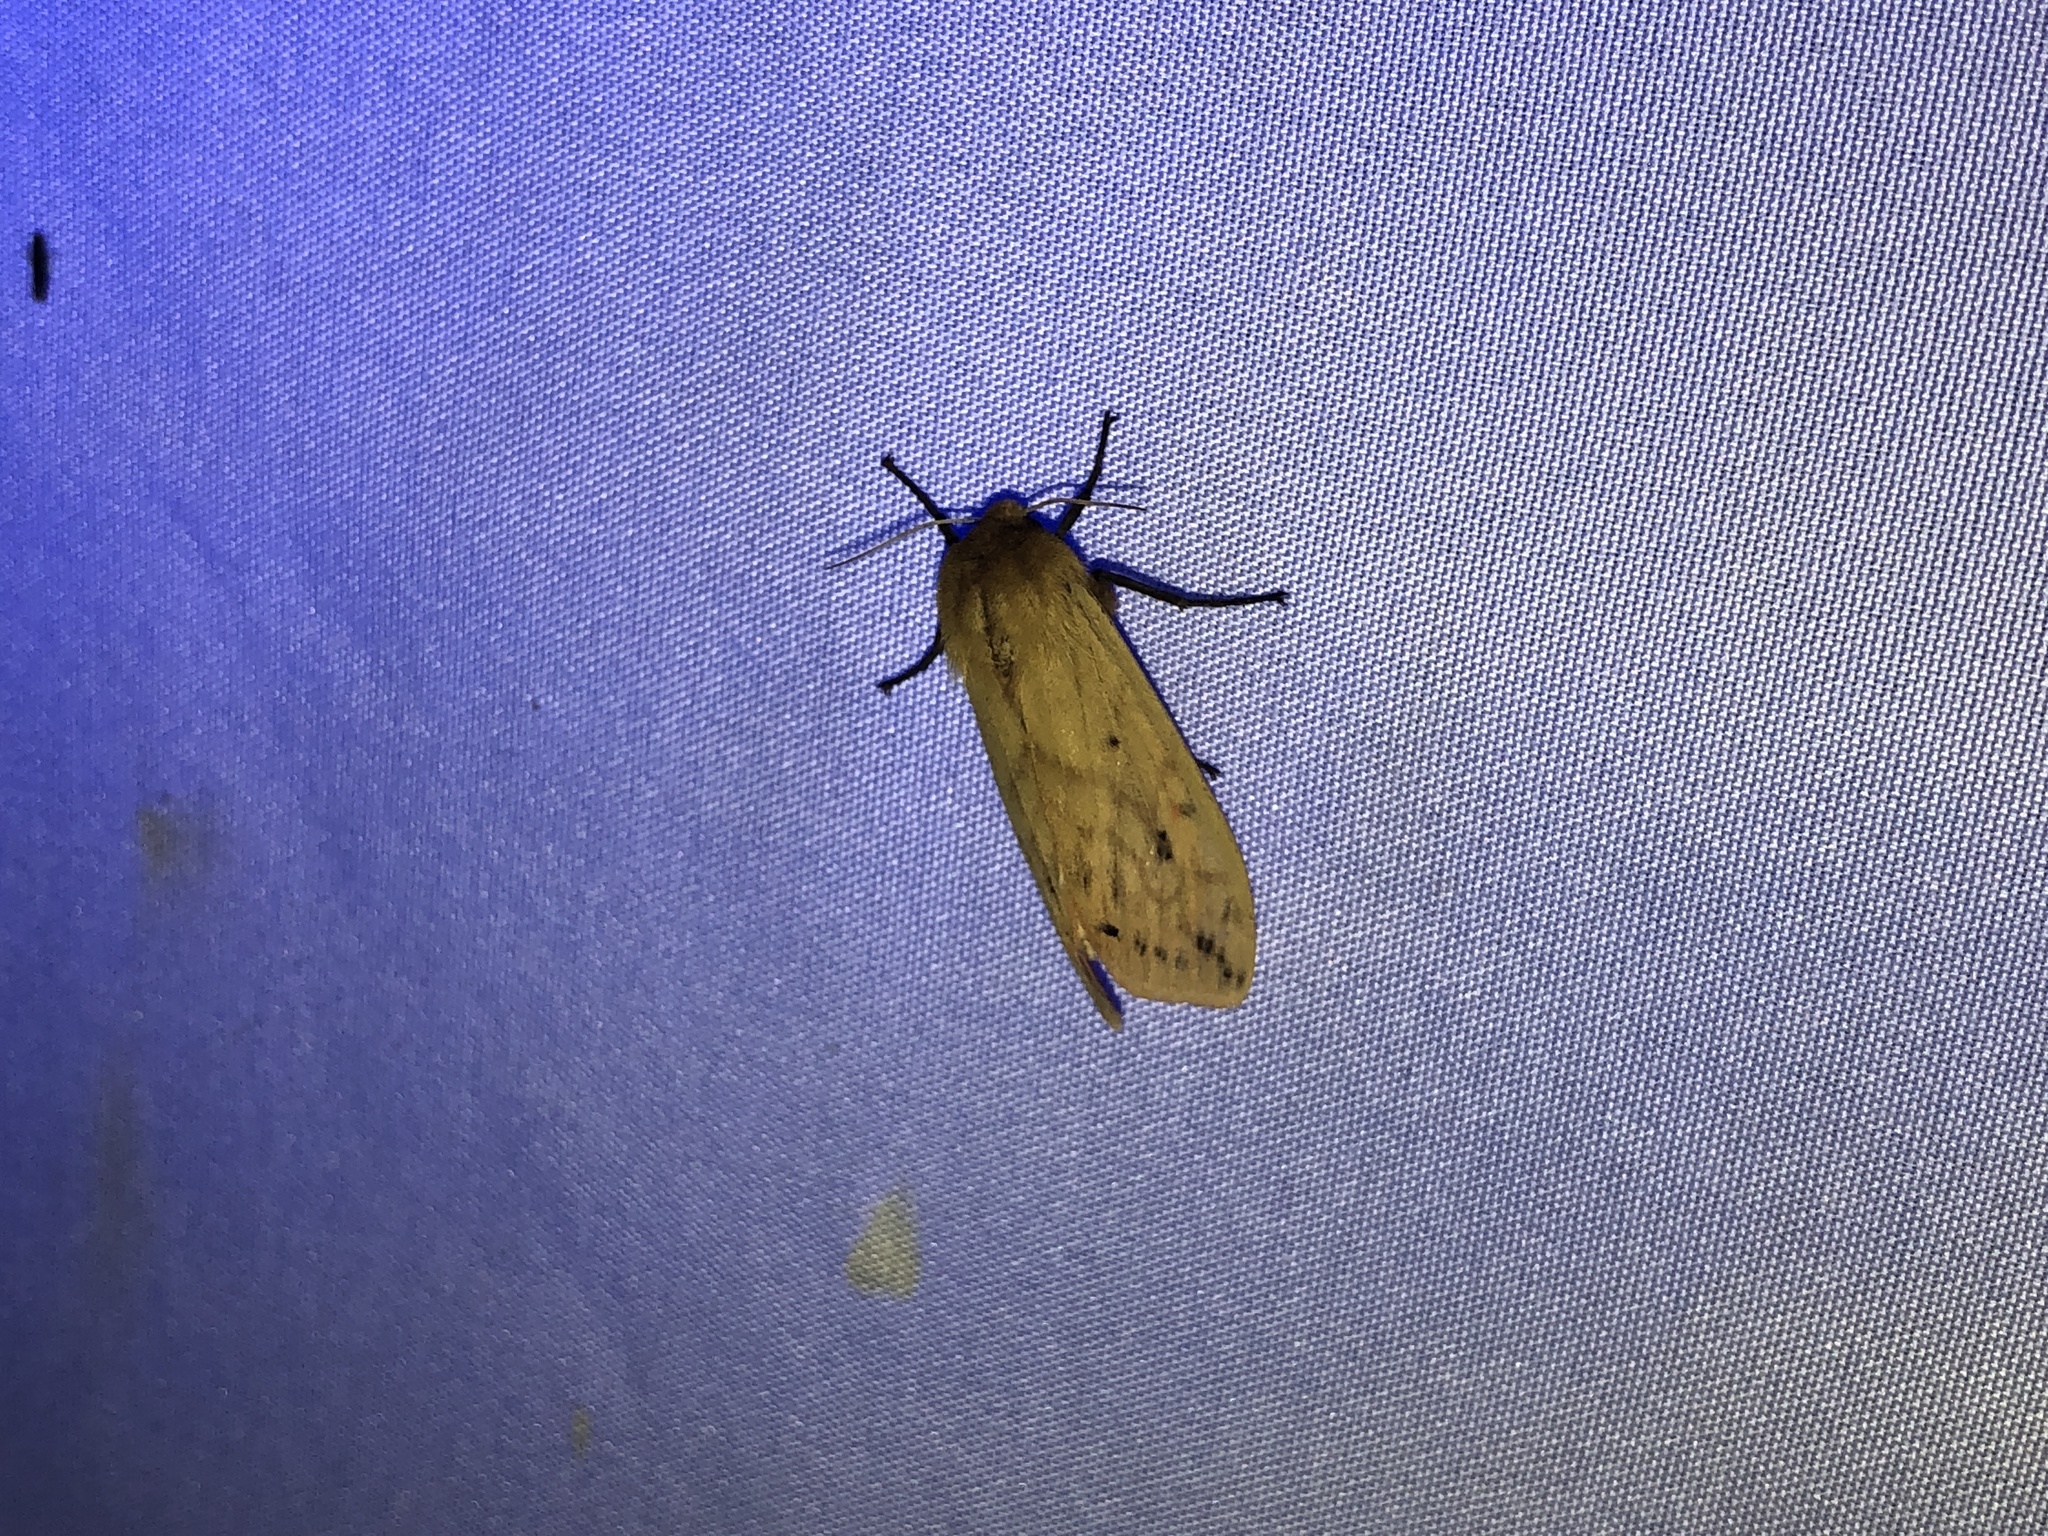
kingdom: Animalia
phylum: Arthropoda
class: Insecta
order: Lepidoptera
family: Erebidae
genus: Pyrrharctia
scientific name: Pyrrharctia isabella
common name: Isabella tiger moth
